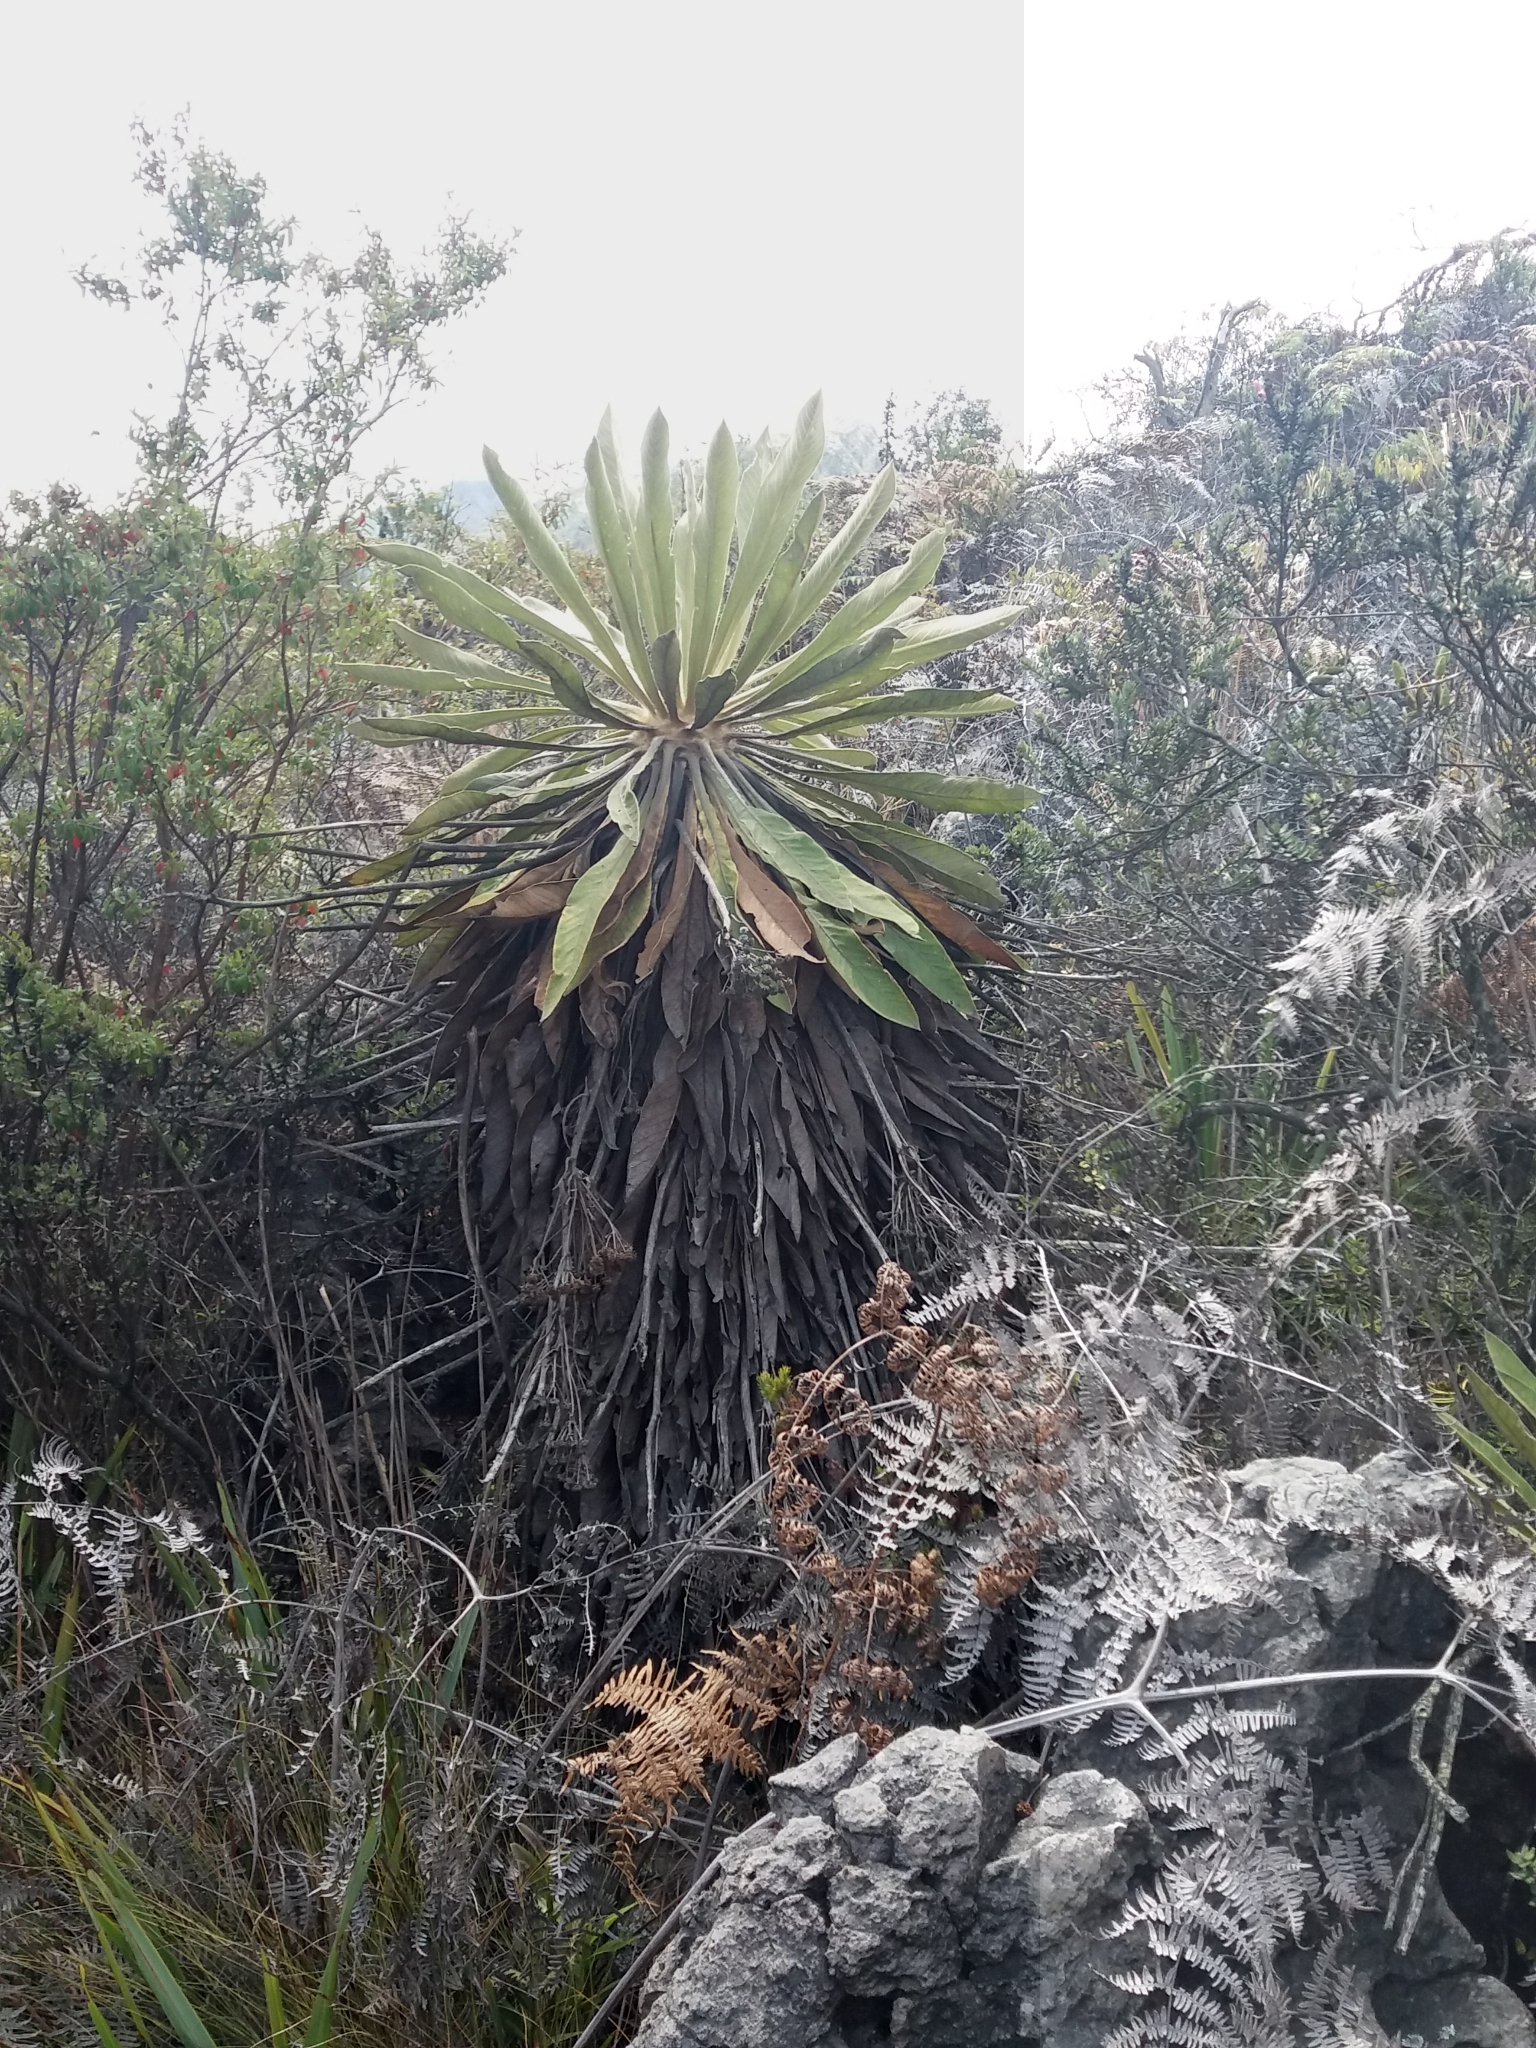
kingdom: Plantae
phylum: Tracheophyta
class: Magnoliopsida
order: Asterales
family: Asteraceae
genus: Espeletia
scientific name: Espeletia corymbosa
